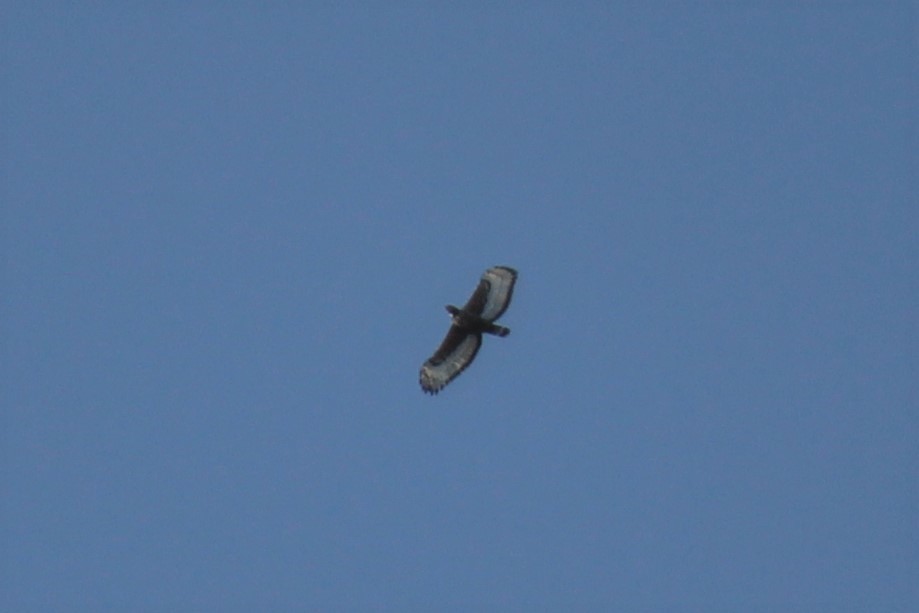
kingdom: Animalia
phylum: Chordata
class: Aves
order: Accipitriformes
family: Accipitridae
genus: Stephanoaetus
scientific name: Stephanoaetus coronatus
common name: Crowned eagle
